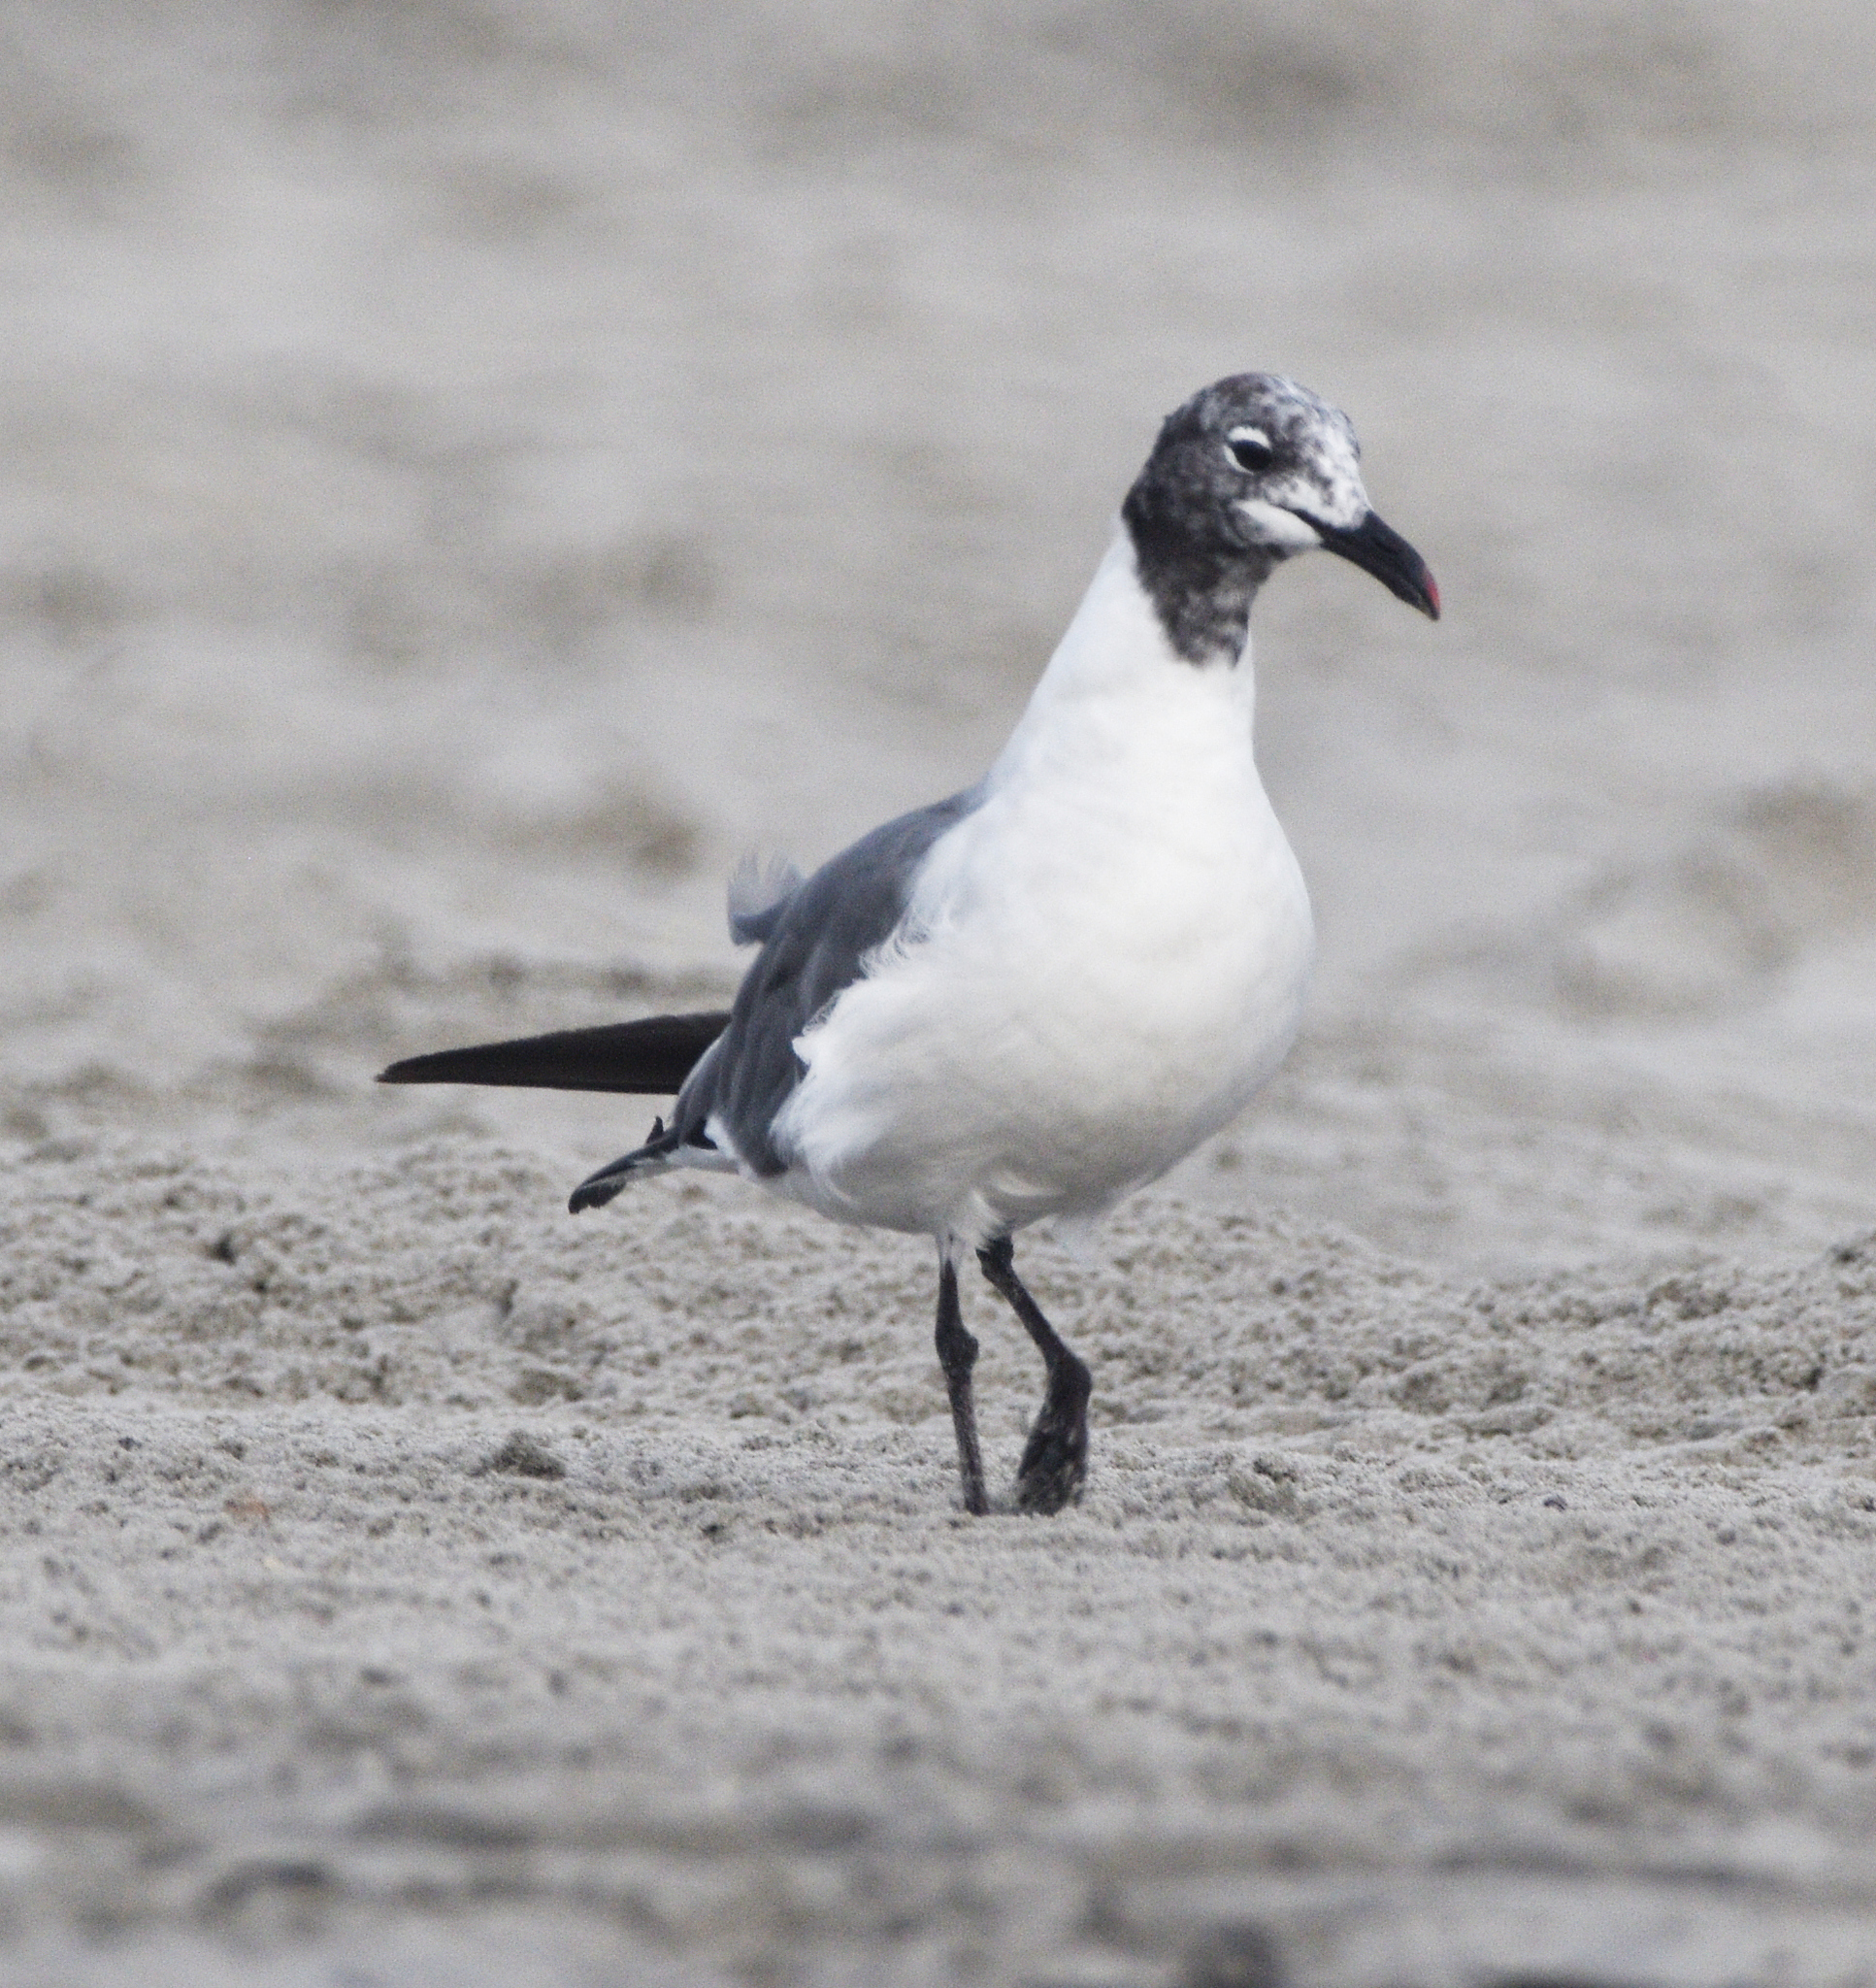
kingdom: Animalia
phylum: Chordata
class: Aves
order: Charadriiformes
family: Laridae
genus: Leucophaeus
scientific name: Leucophaeus atricilla
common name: Laughing gull
